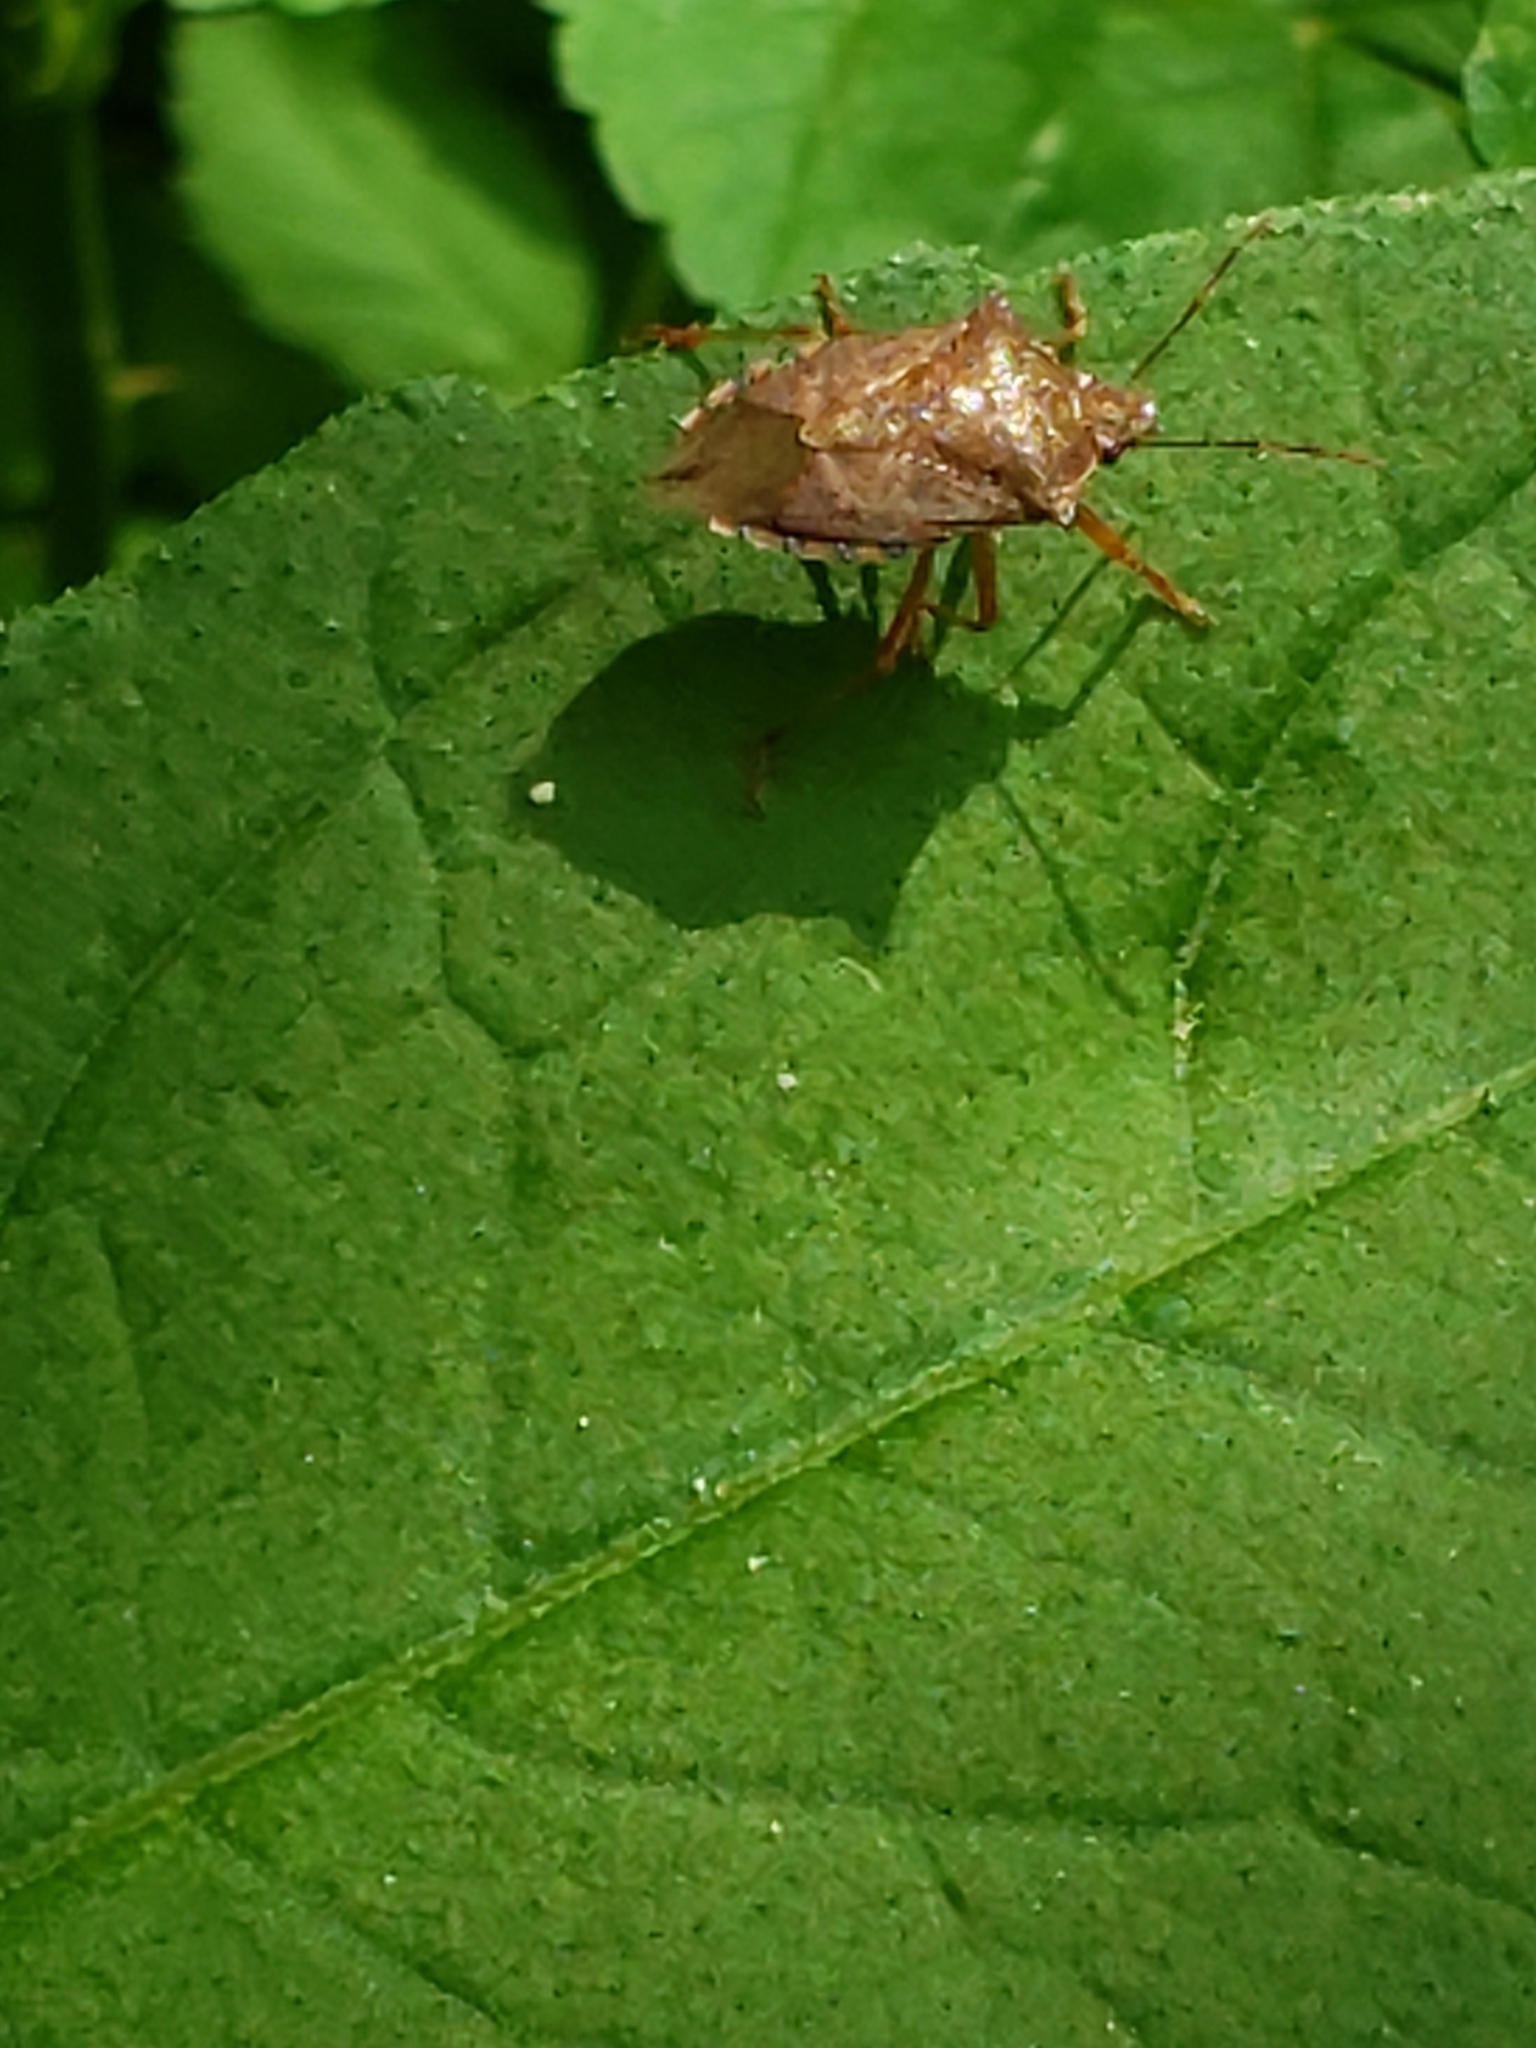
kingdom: Animalia
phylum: Arthropoda
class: Insecta
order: Hemiptera
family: Pentatomidae
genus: Podisus
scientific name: Podisus maculiventris
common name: Spined soldier bug
